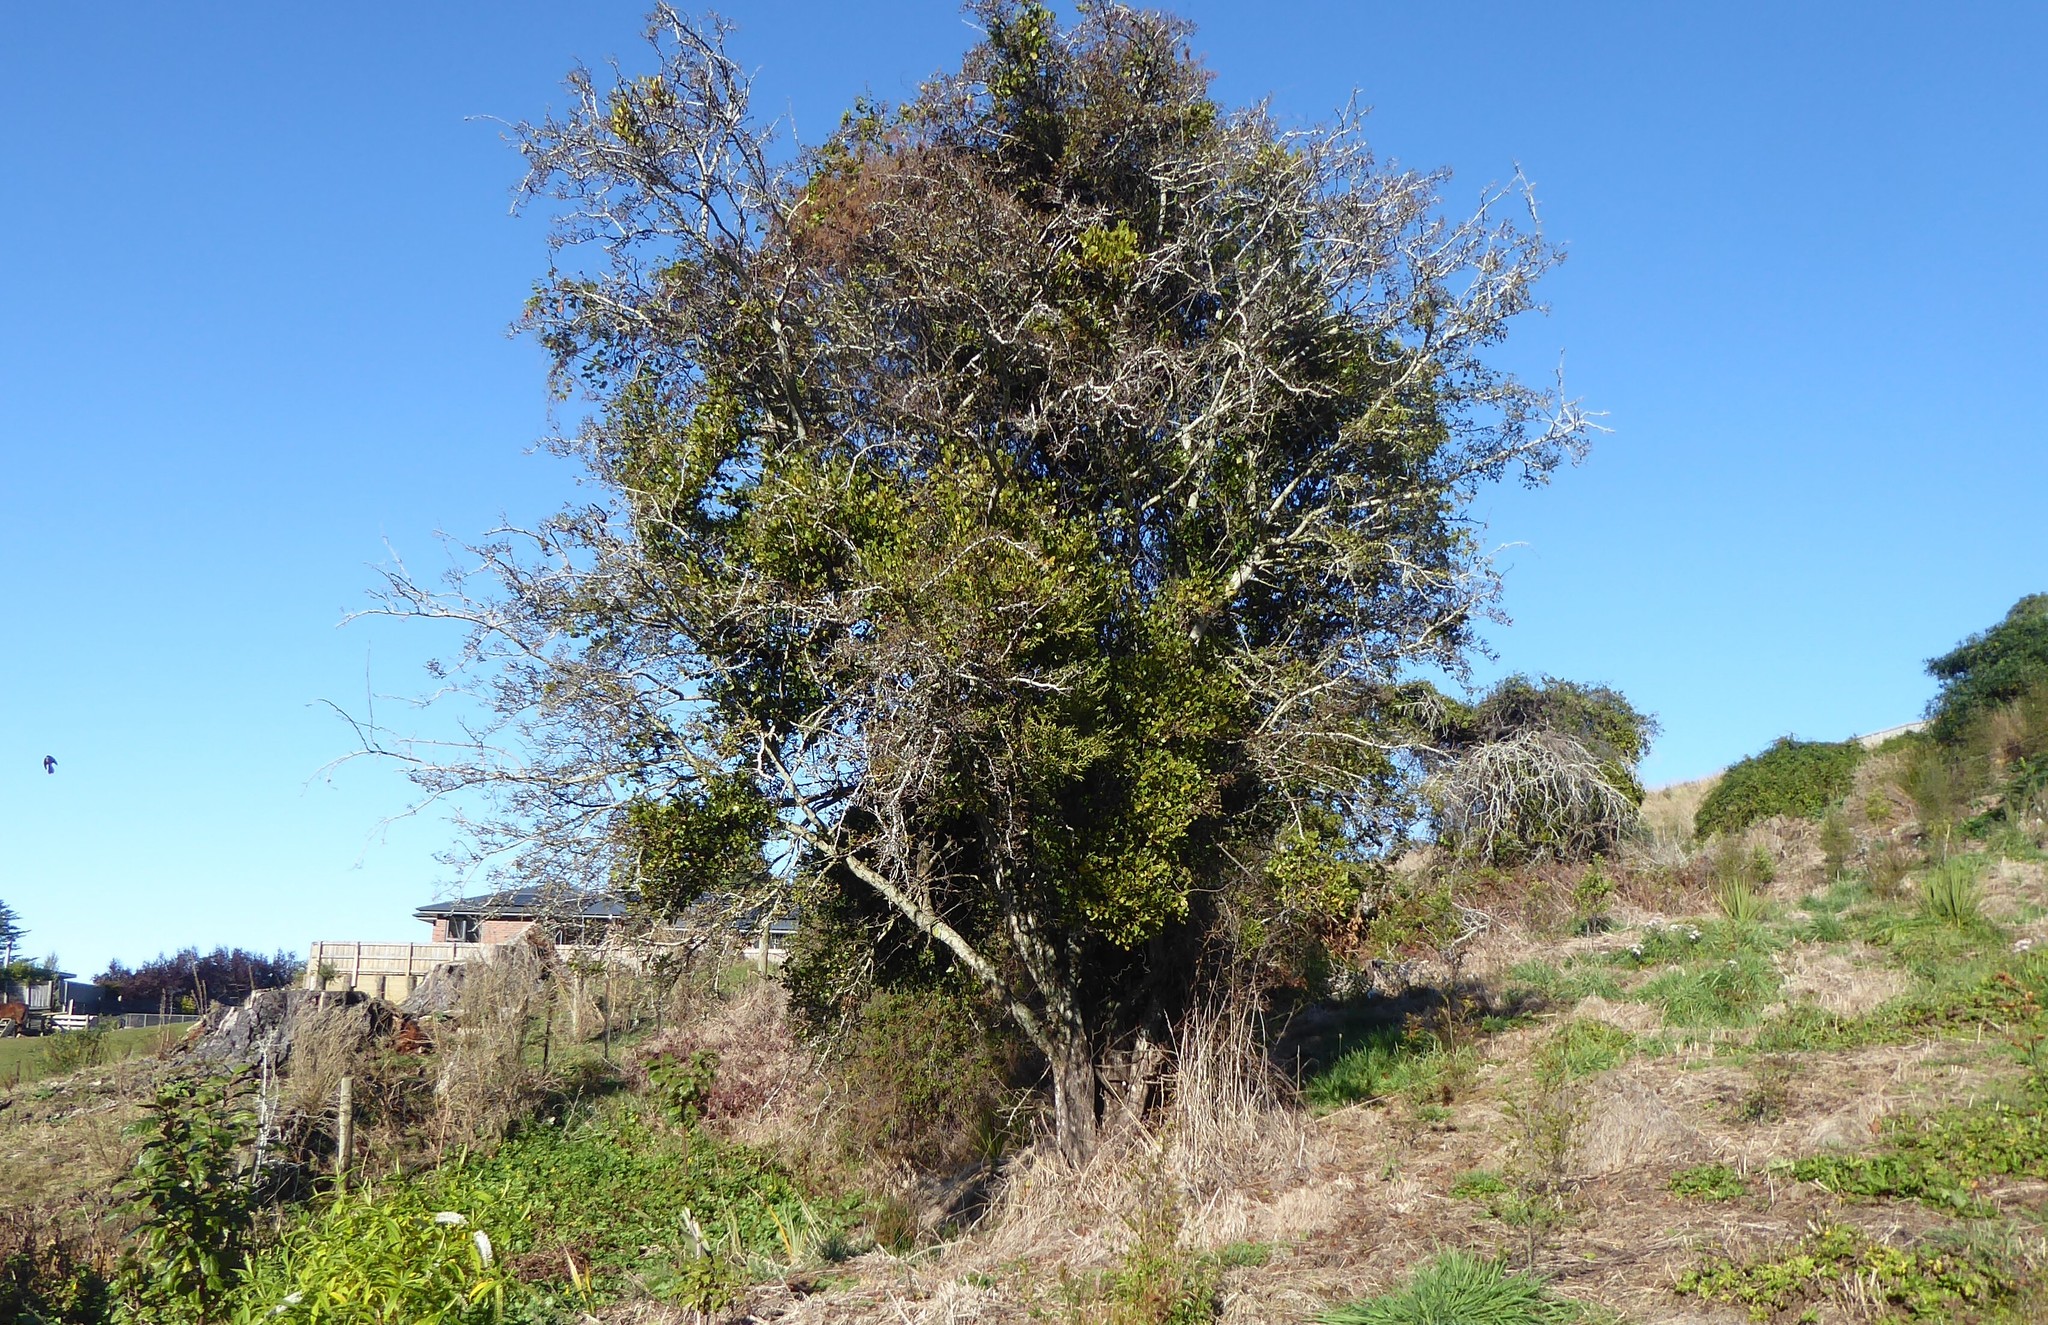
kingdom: Plantae
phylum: Tracheophyta
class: Magnoliopsida
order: Santalales
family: Loranthaceae
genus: Tupeia
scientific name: Tupeia antarctica
